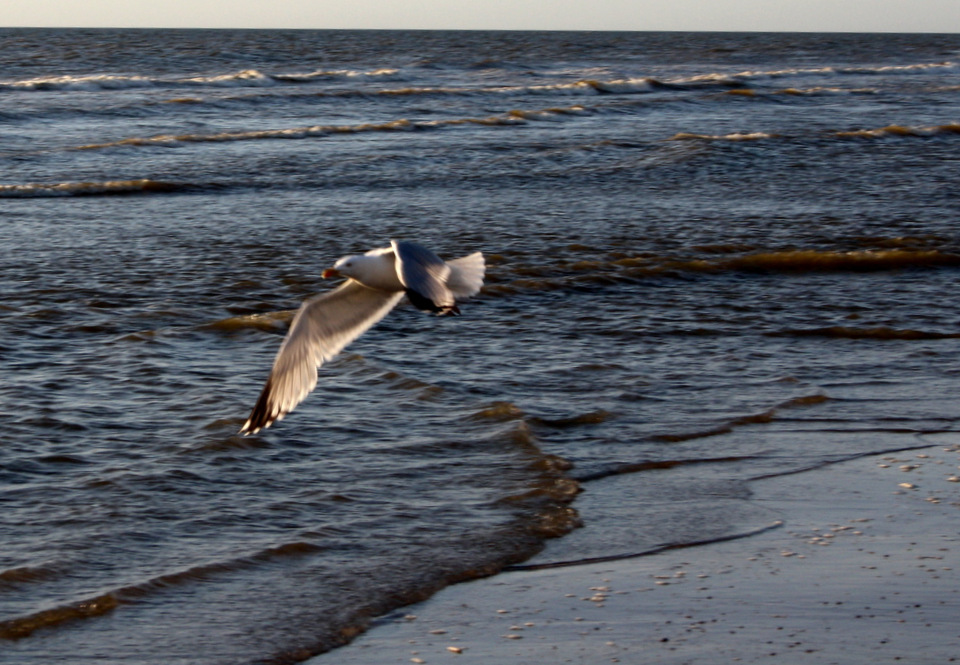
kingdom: Animalia
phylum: Chordata
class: Aves
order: Charadriiformes
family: Laridae
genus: Larus
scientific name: Larus argentatus
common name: Herring gull
